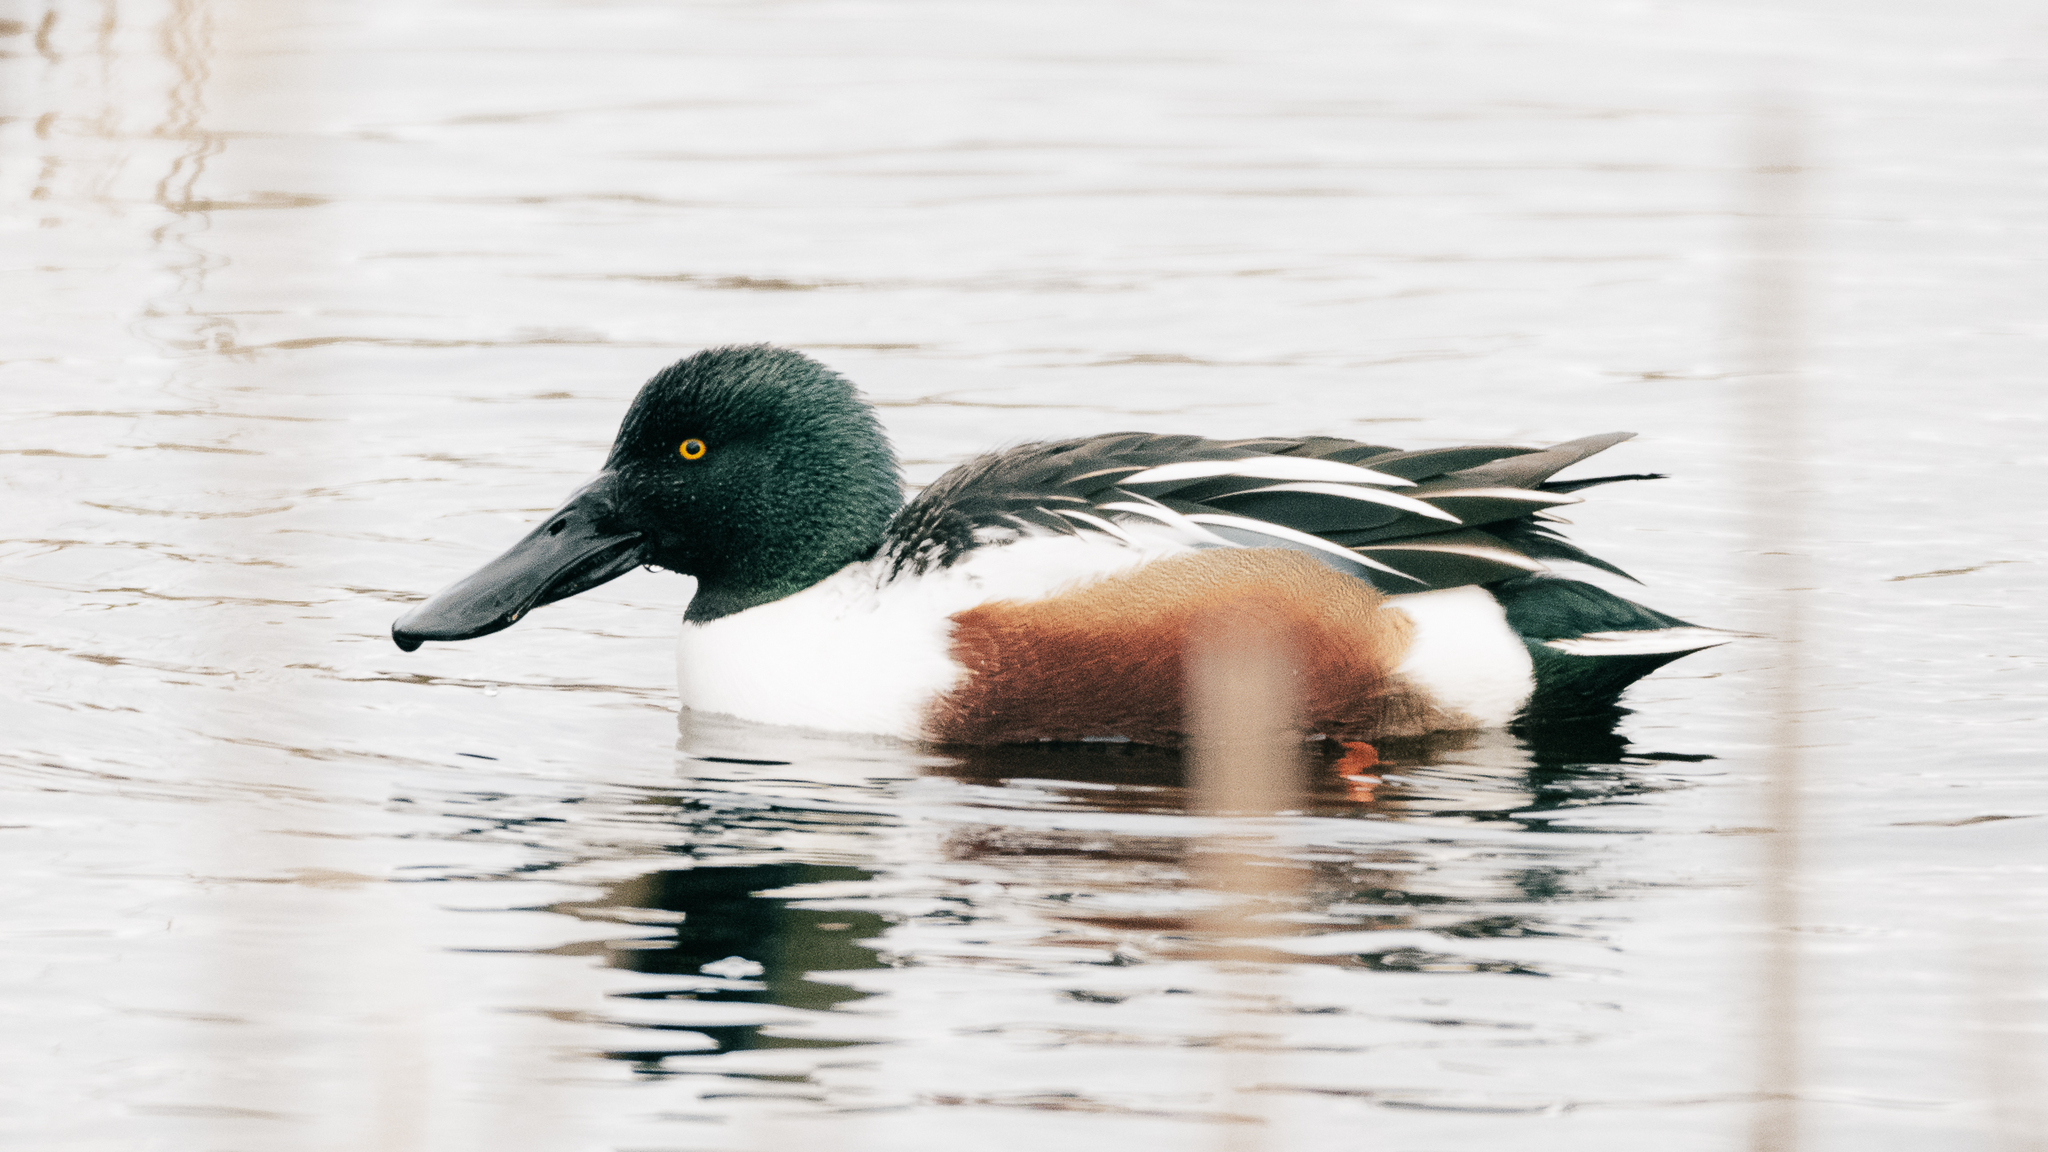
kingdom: Animalia
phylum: Chordata
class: Aves
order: Anseriformes
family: Anatidae
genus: Spatula
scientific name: Spatula clypeata
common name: Northern shoveler
